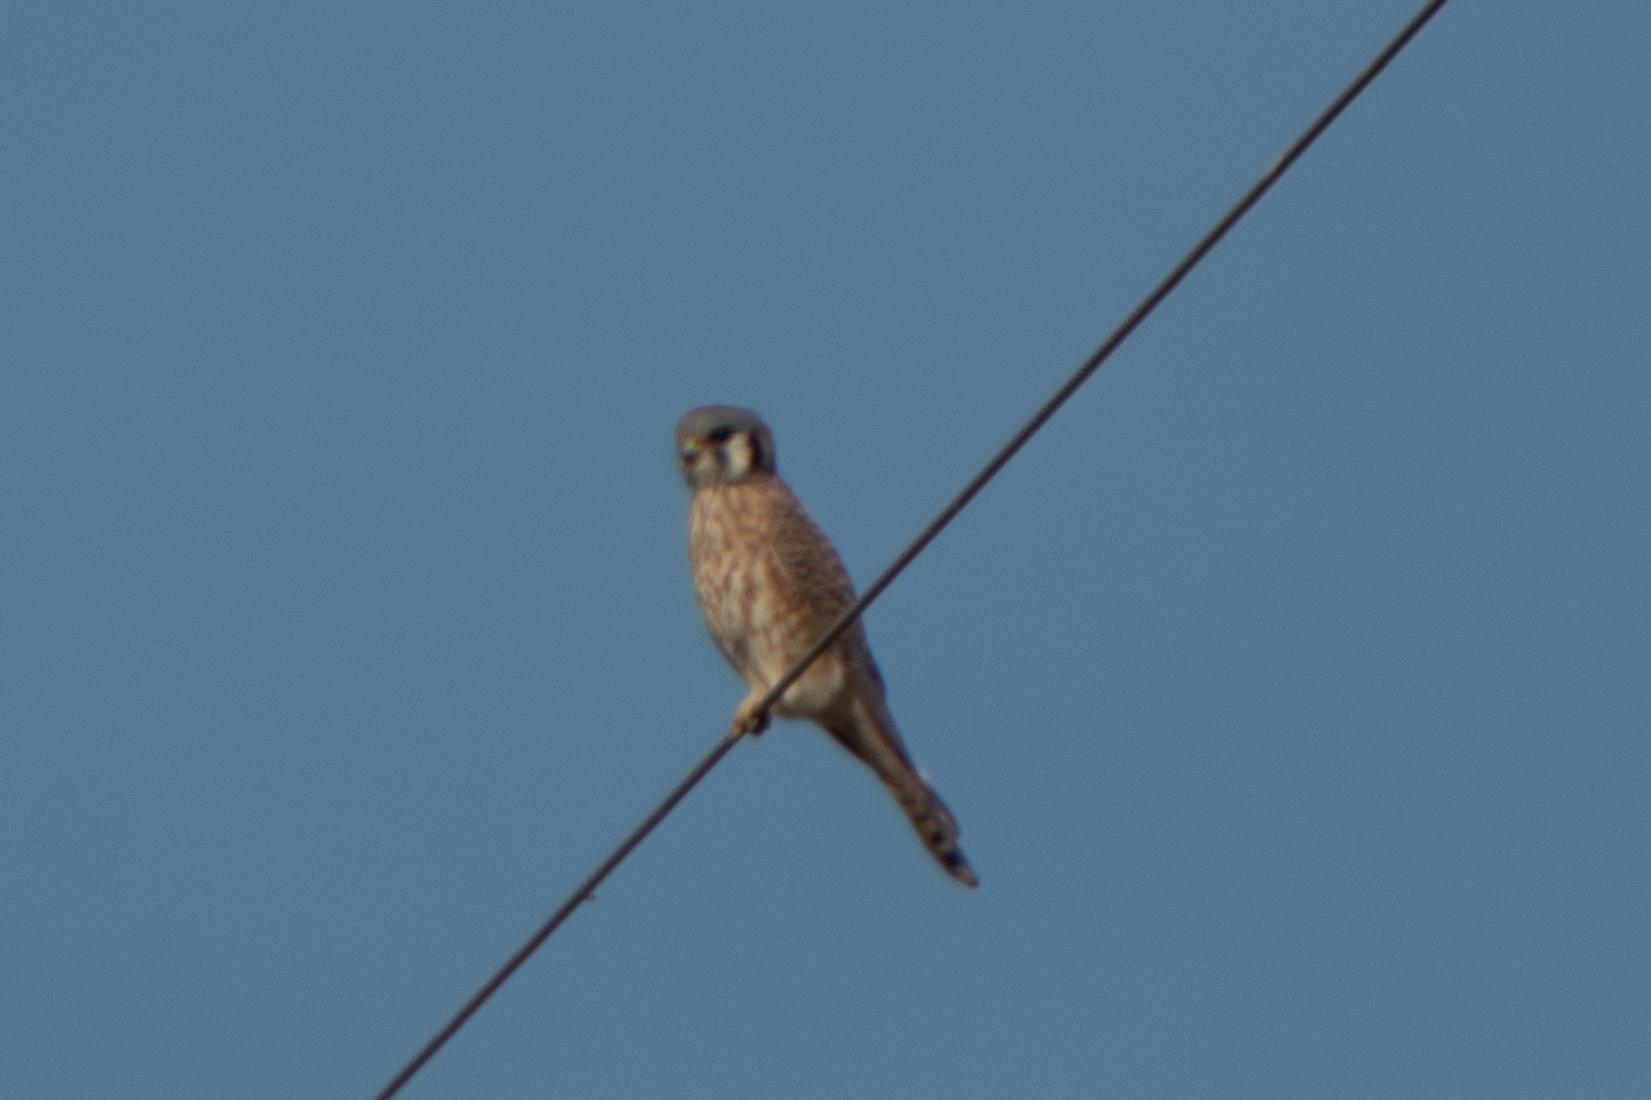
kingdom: Animalia
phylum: Chordata
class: Aves
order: Falconiformes
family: Falconidae
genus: Falco
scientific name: Falco sparverius
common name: American kestrel
